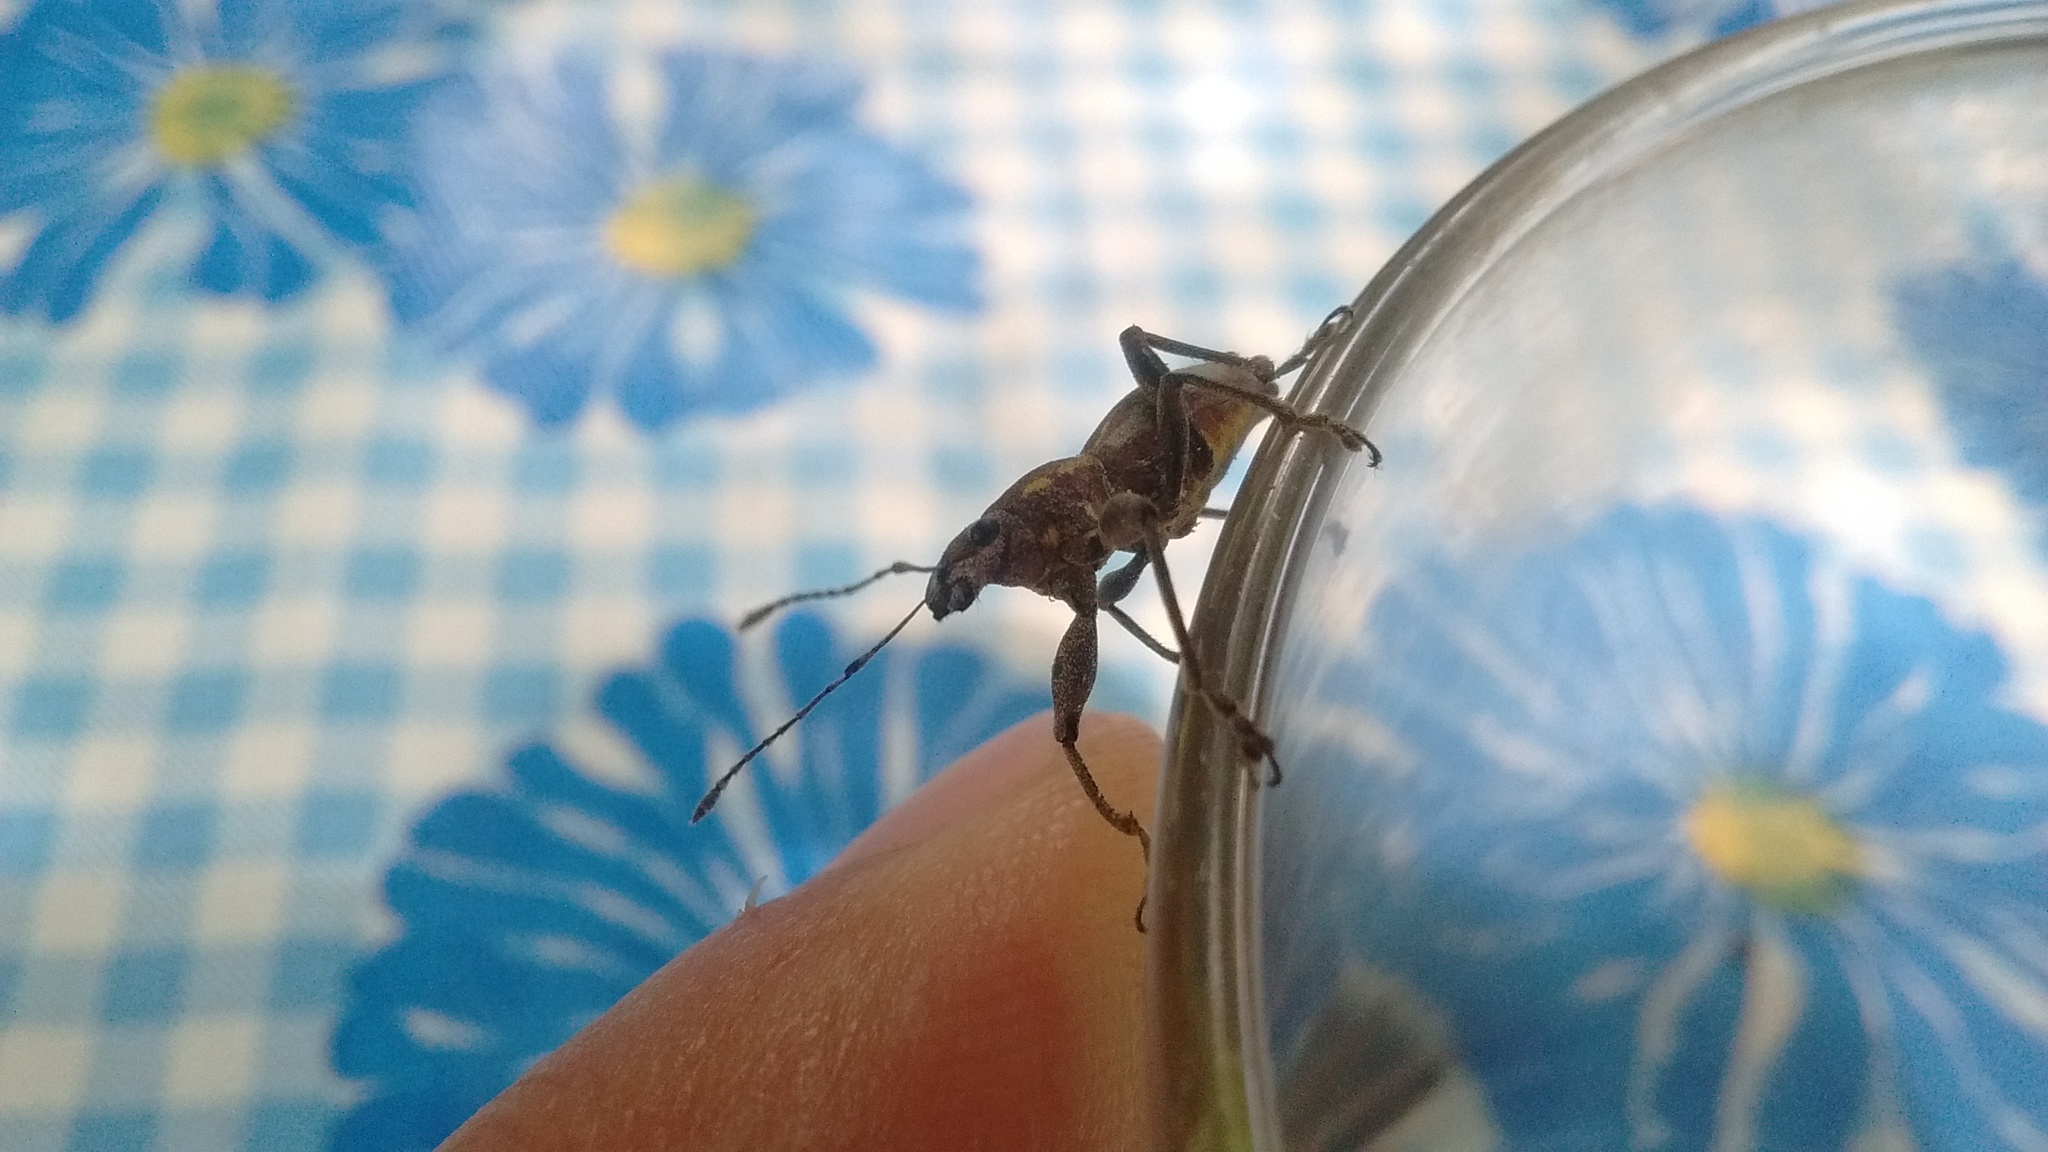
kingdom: Animalia
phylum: Arthropoda
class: Insecta
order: Coleoptera
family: Curculionidae
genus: Naupactus
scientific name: Naupactus xanthographus
